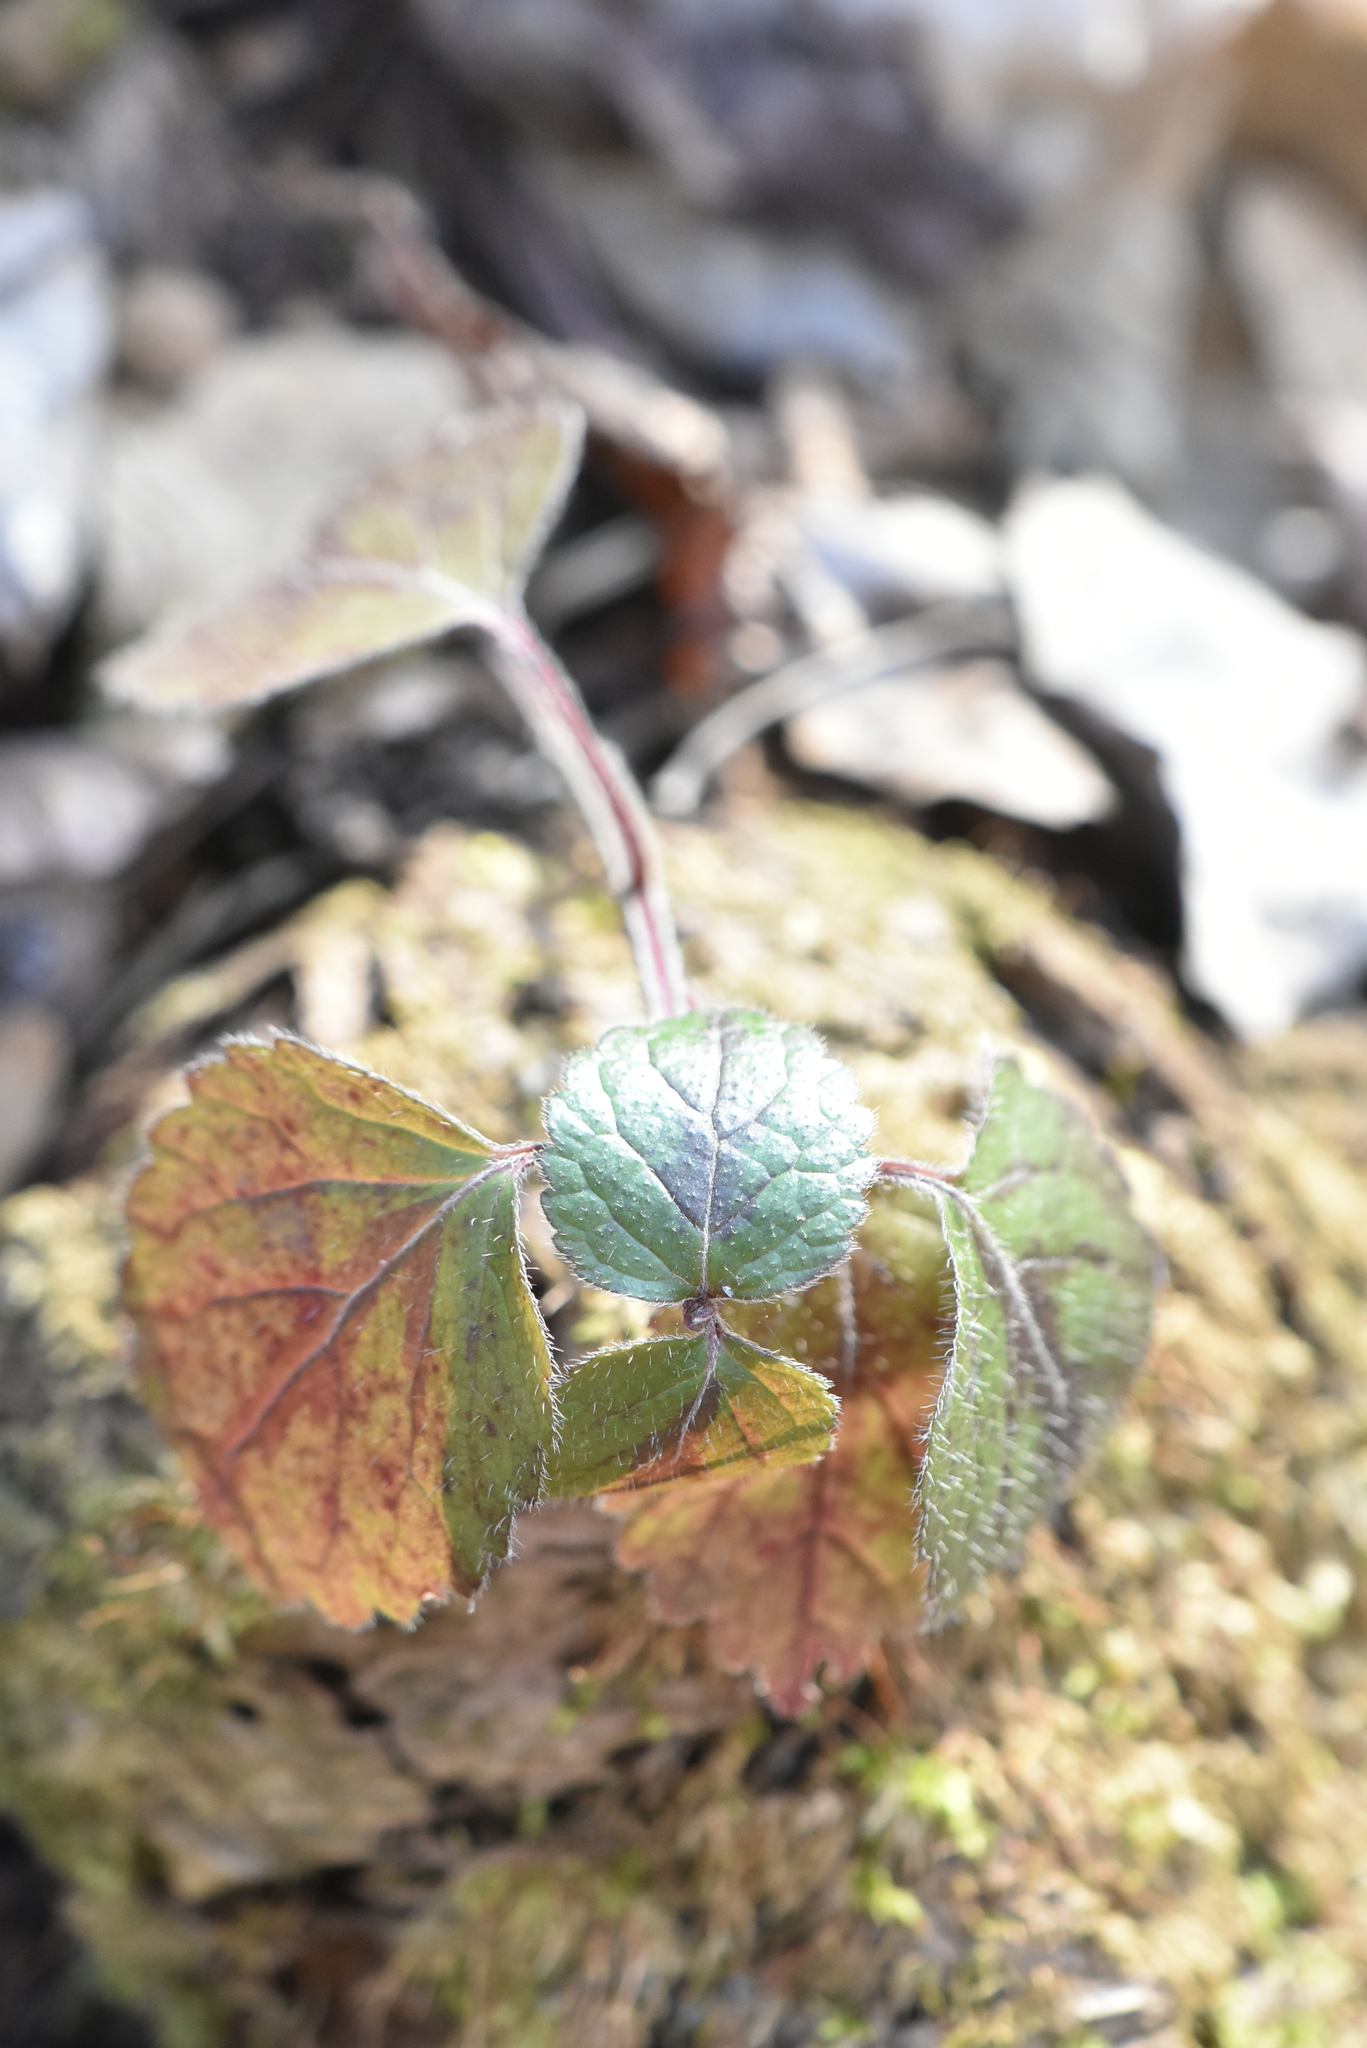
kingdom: Plantae
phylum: Tracheophyta
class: Magnoliopsida
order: Lamiales
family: Lamiaceae
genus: Lamium
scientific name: Lamium galeobdolon
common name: Yellow archangel
